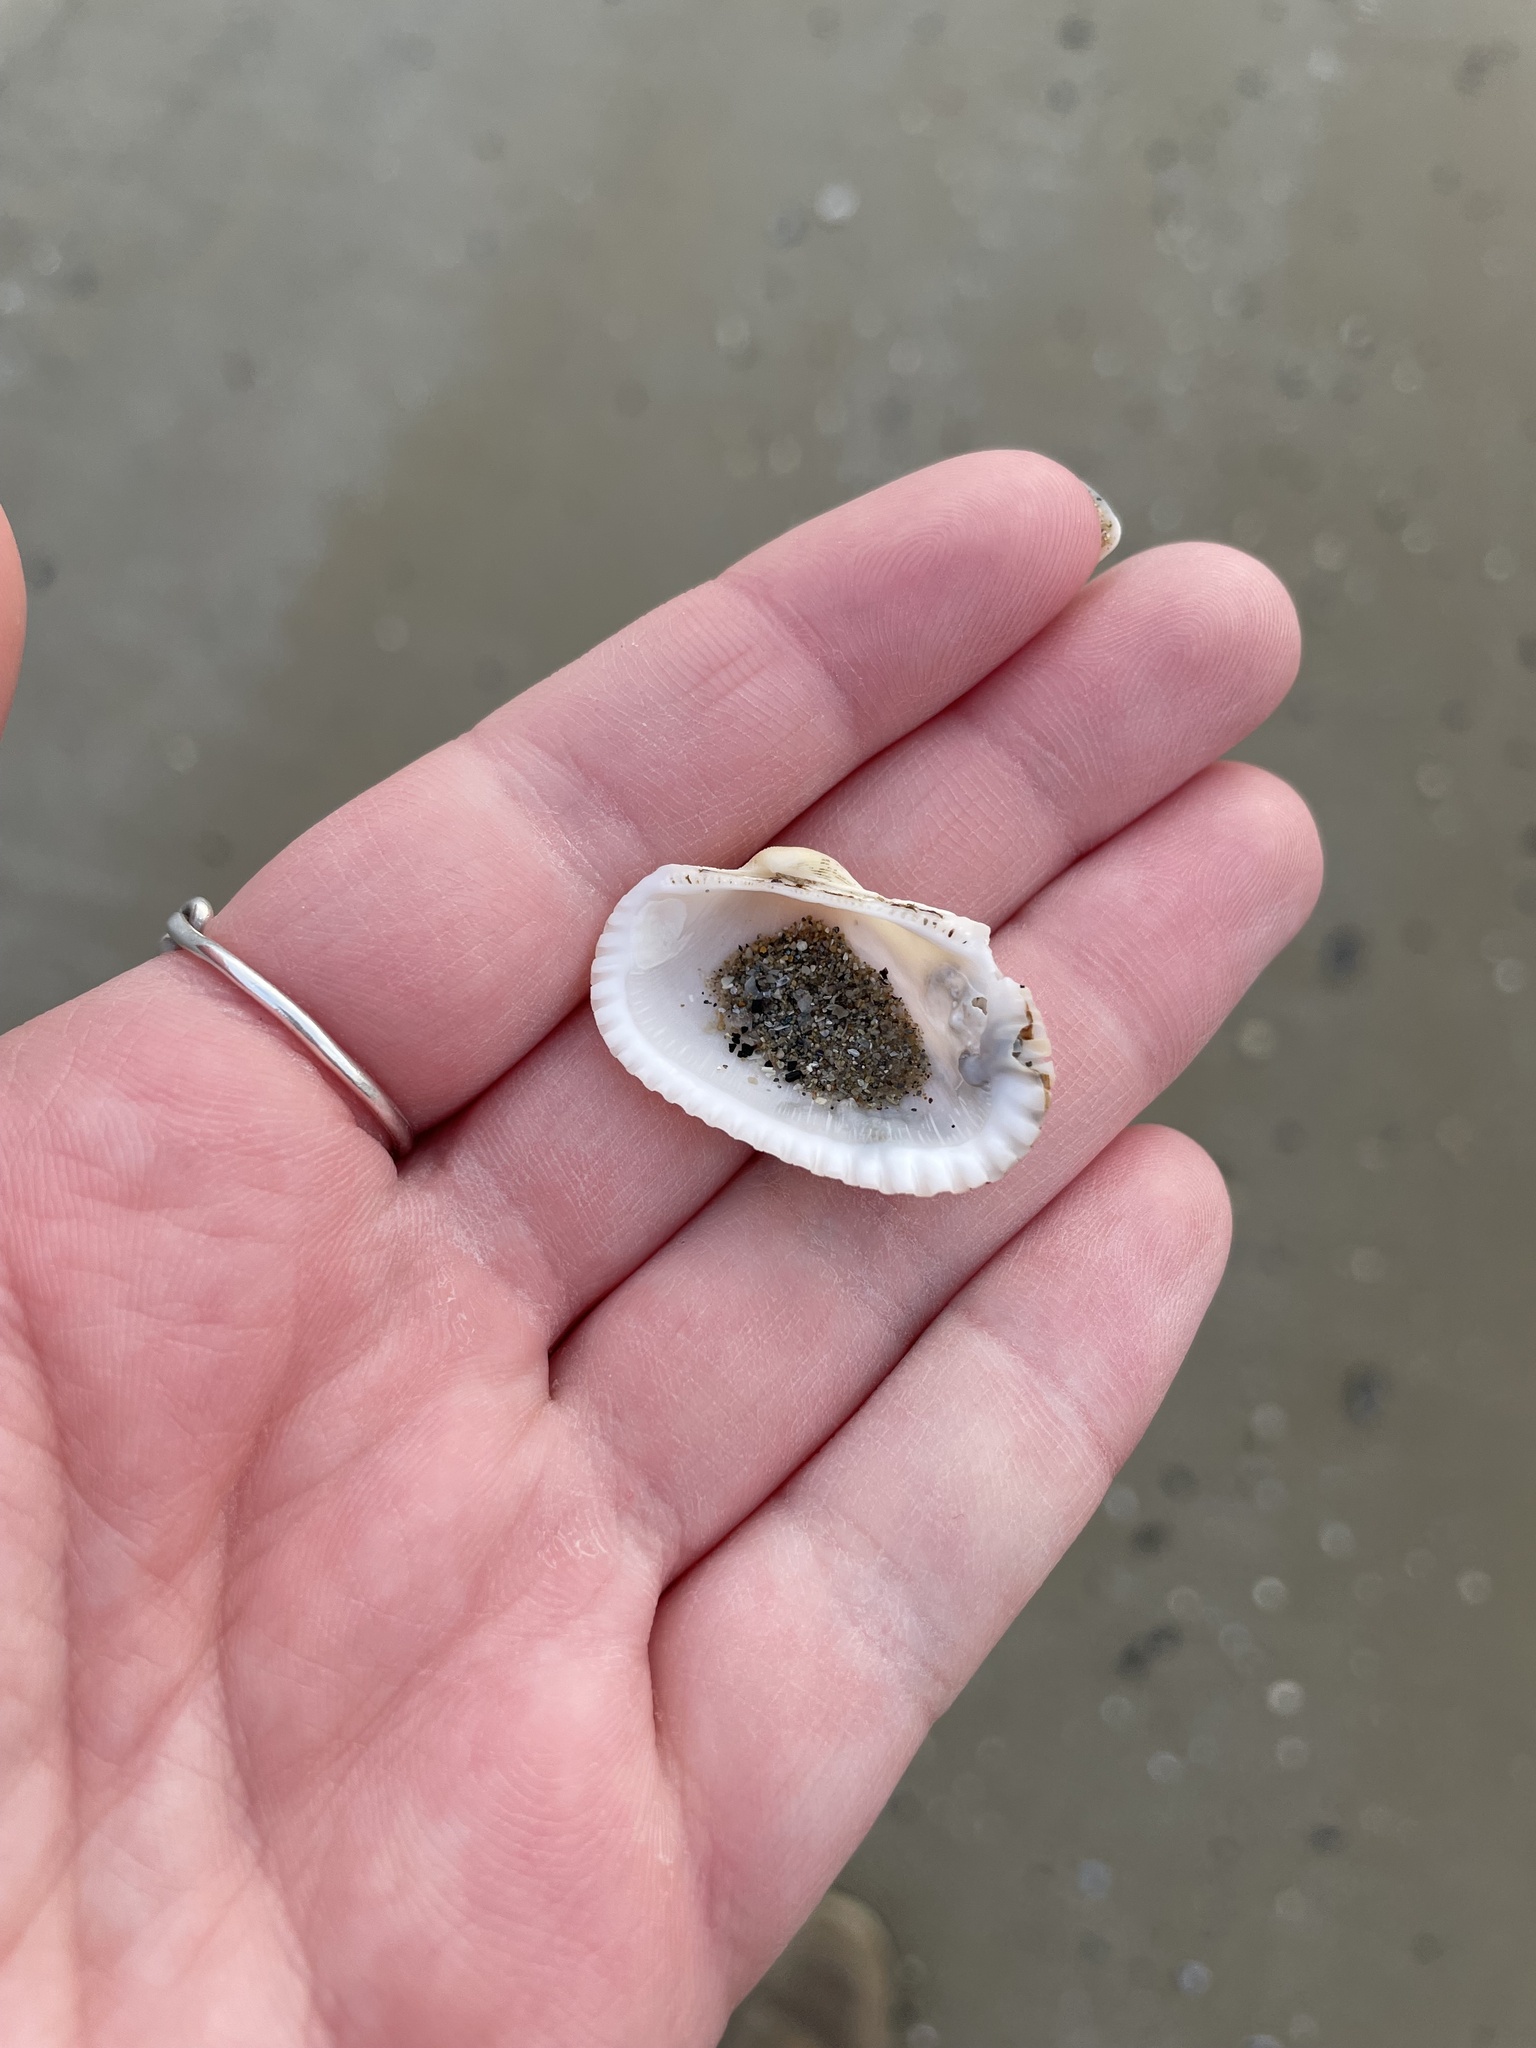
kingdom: Animalia
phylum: Mollusca
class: Bivalvia
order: Arcida
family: Arcidae
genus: Anadara
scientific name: Anadara transversa
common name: Transverse ark
